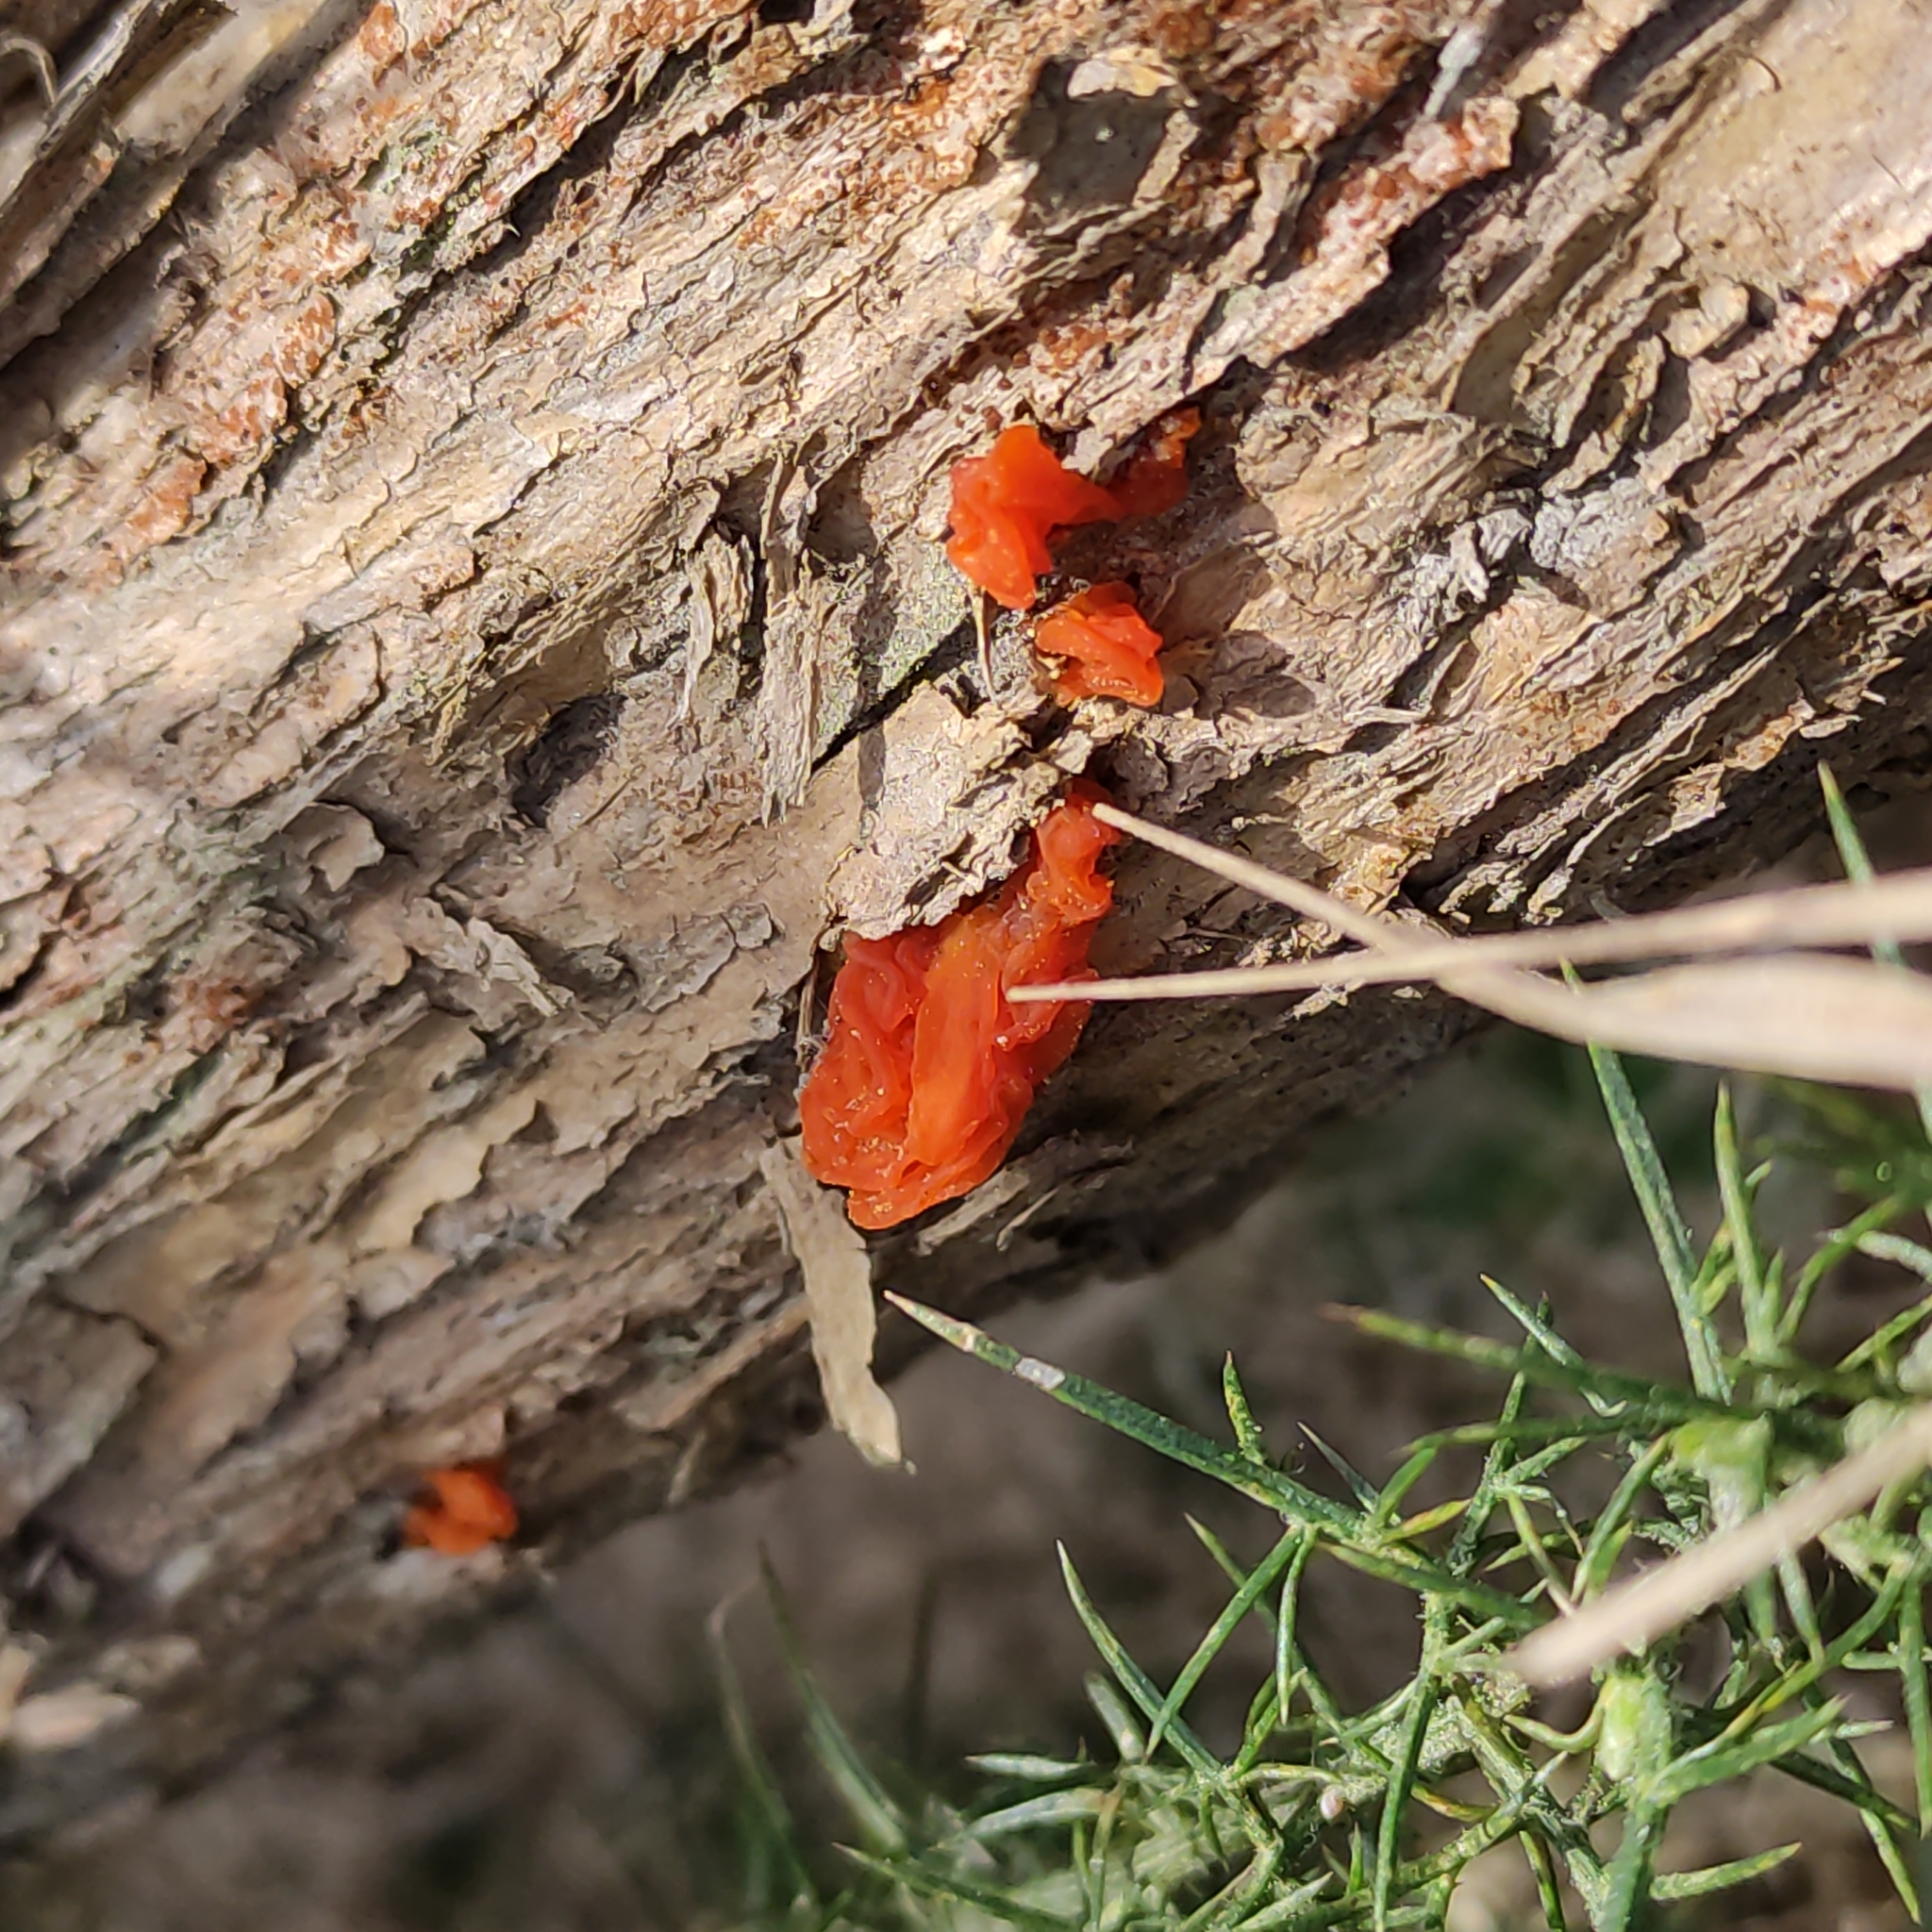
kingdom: Fungi
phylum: Basidiomycota
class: Tremellomycetes
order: Tremellales
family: Tremellaceae
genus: Tremella
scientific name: Tremella mesenterica
